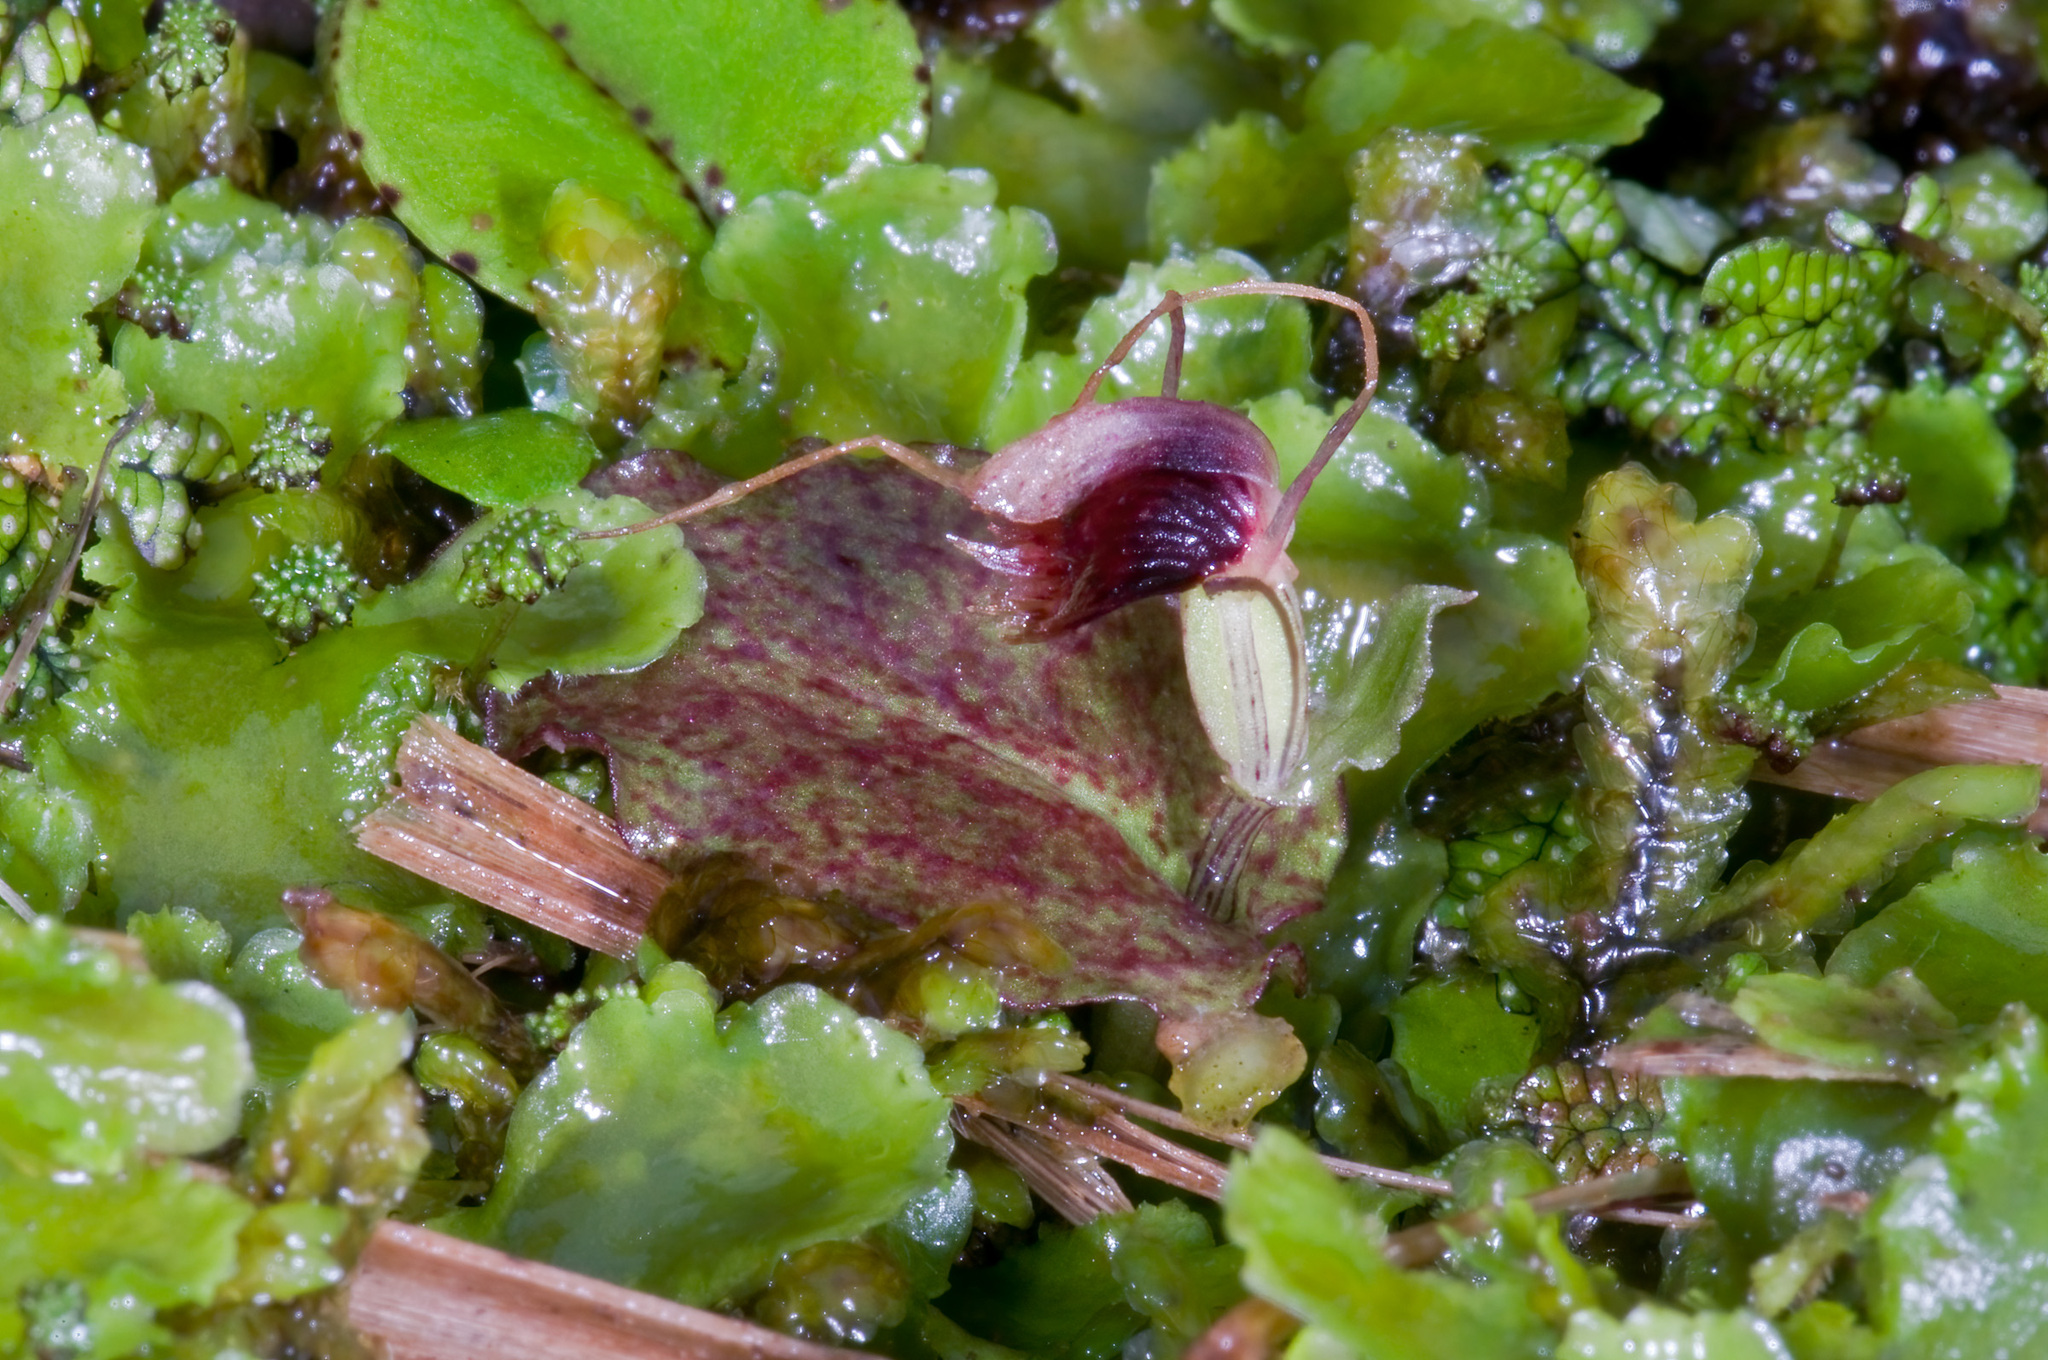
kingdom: Plantae
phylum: Tracheophyta
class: Liliopsida
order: Asparagales
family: Orchidaceae
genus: Corybas
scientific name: Corybas oblongus
